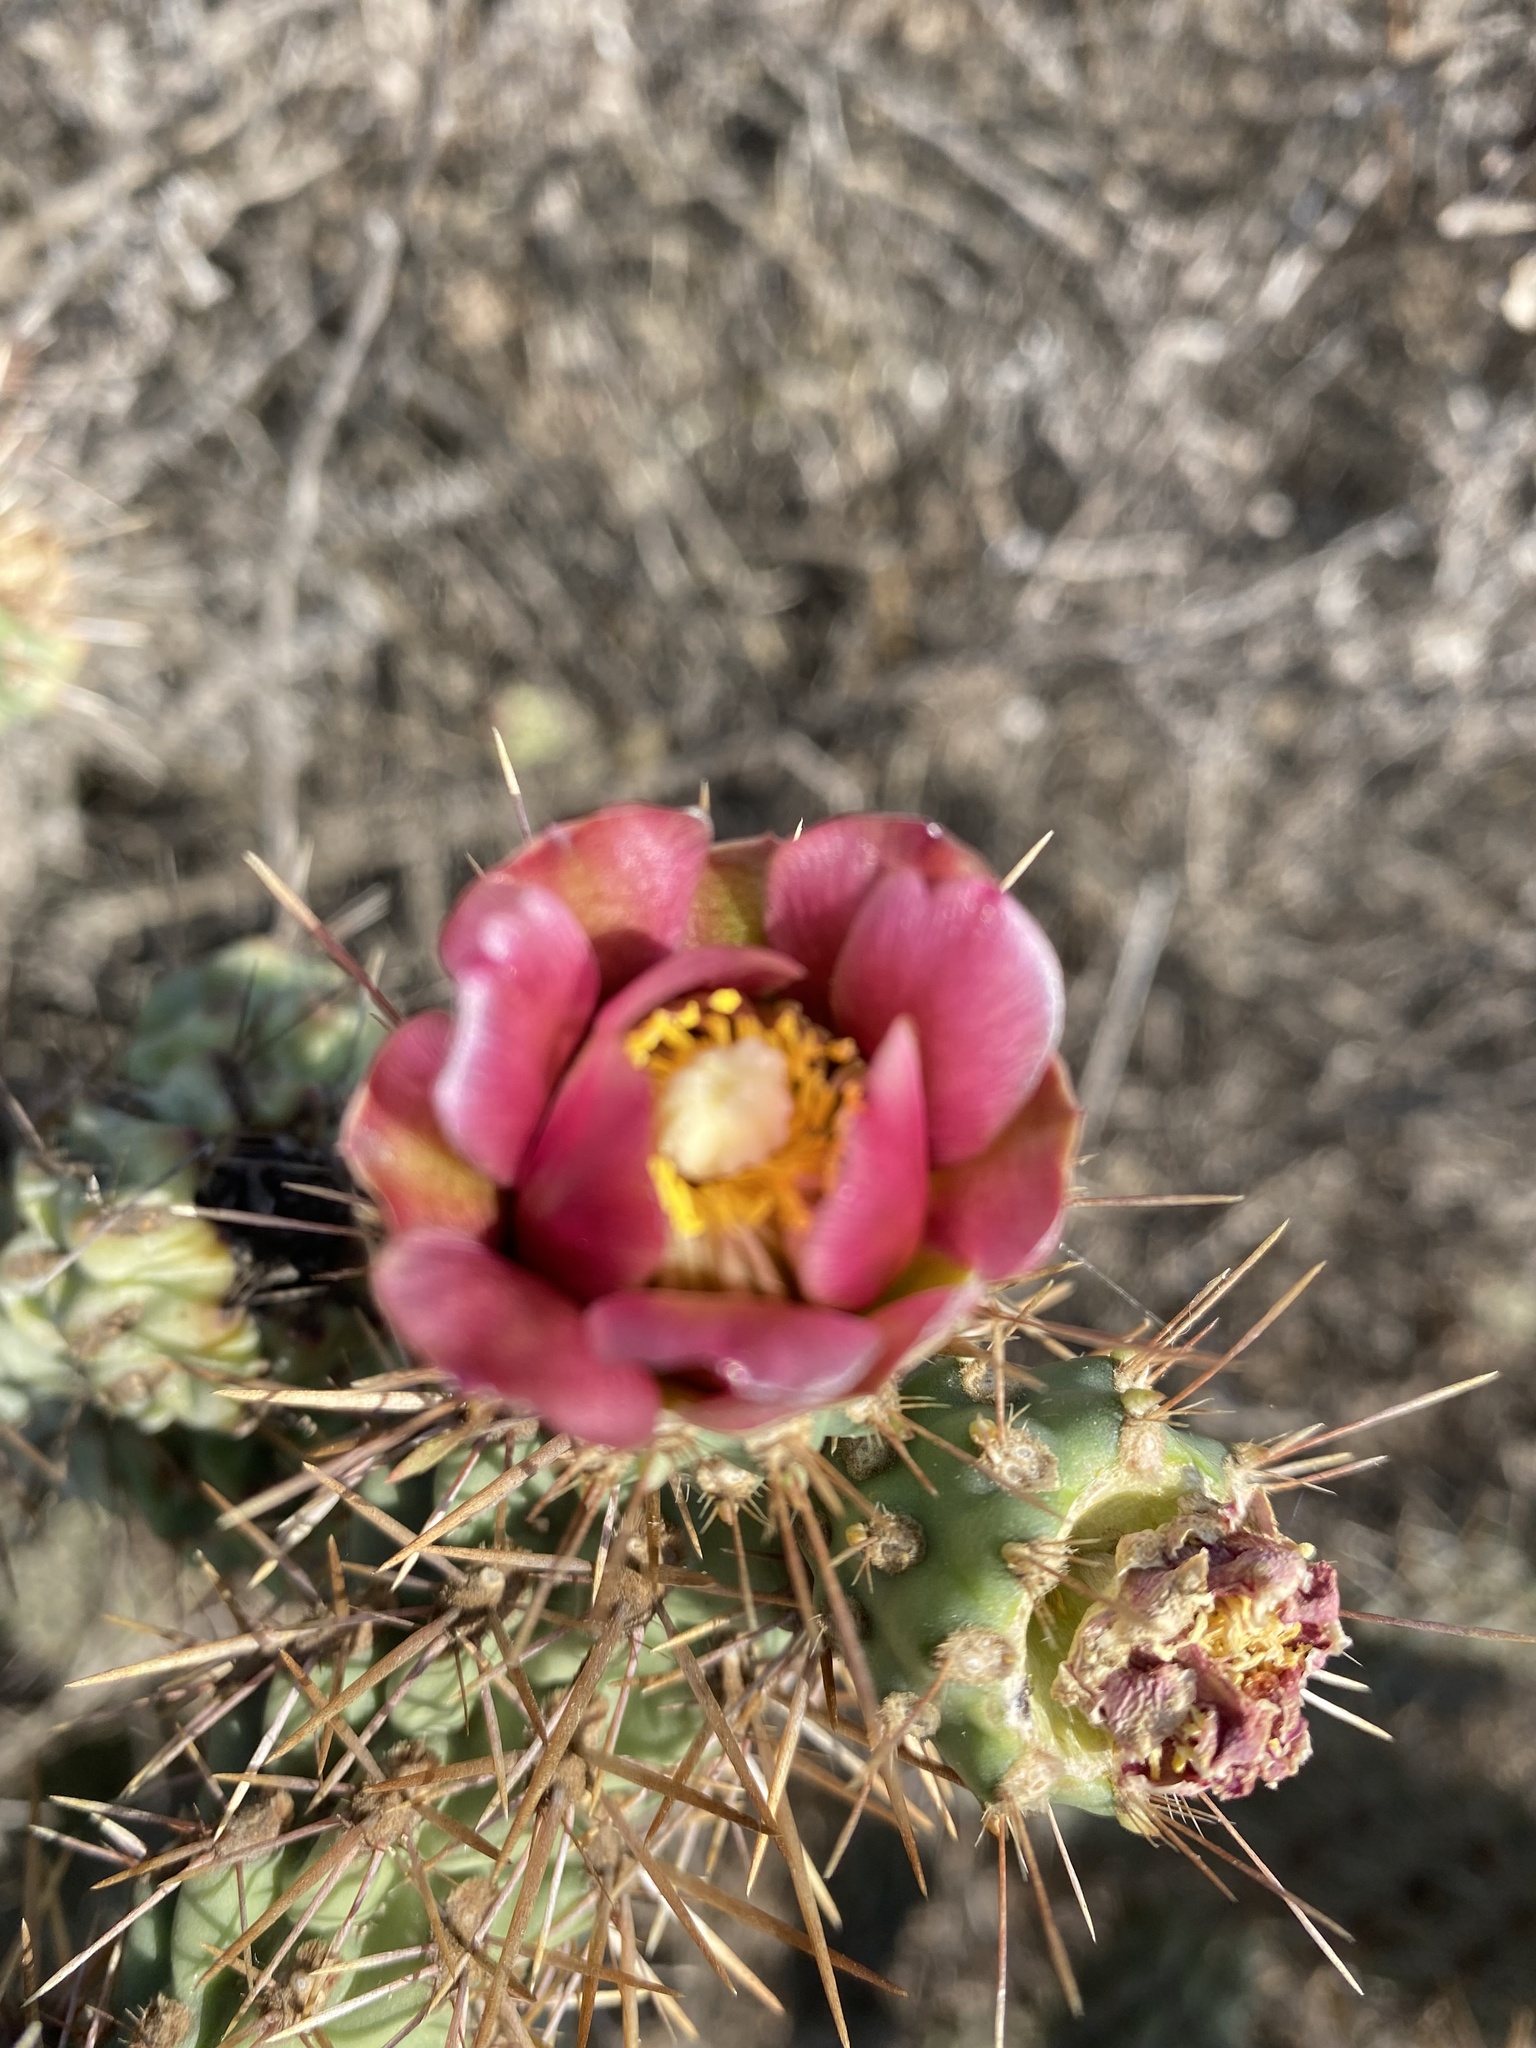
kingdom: Plantae
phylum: Tracheophyta
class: Magnoliopsida
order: Caryophyllales
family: Cactaceae
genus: Cylindropuntia
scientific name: Cylindropuntia prolifera
